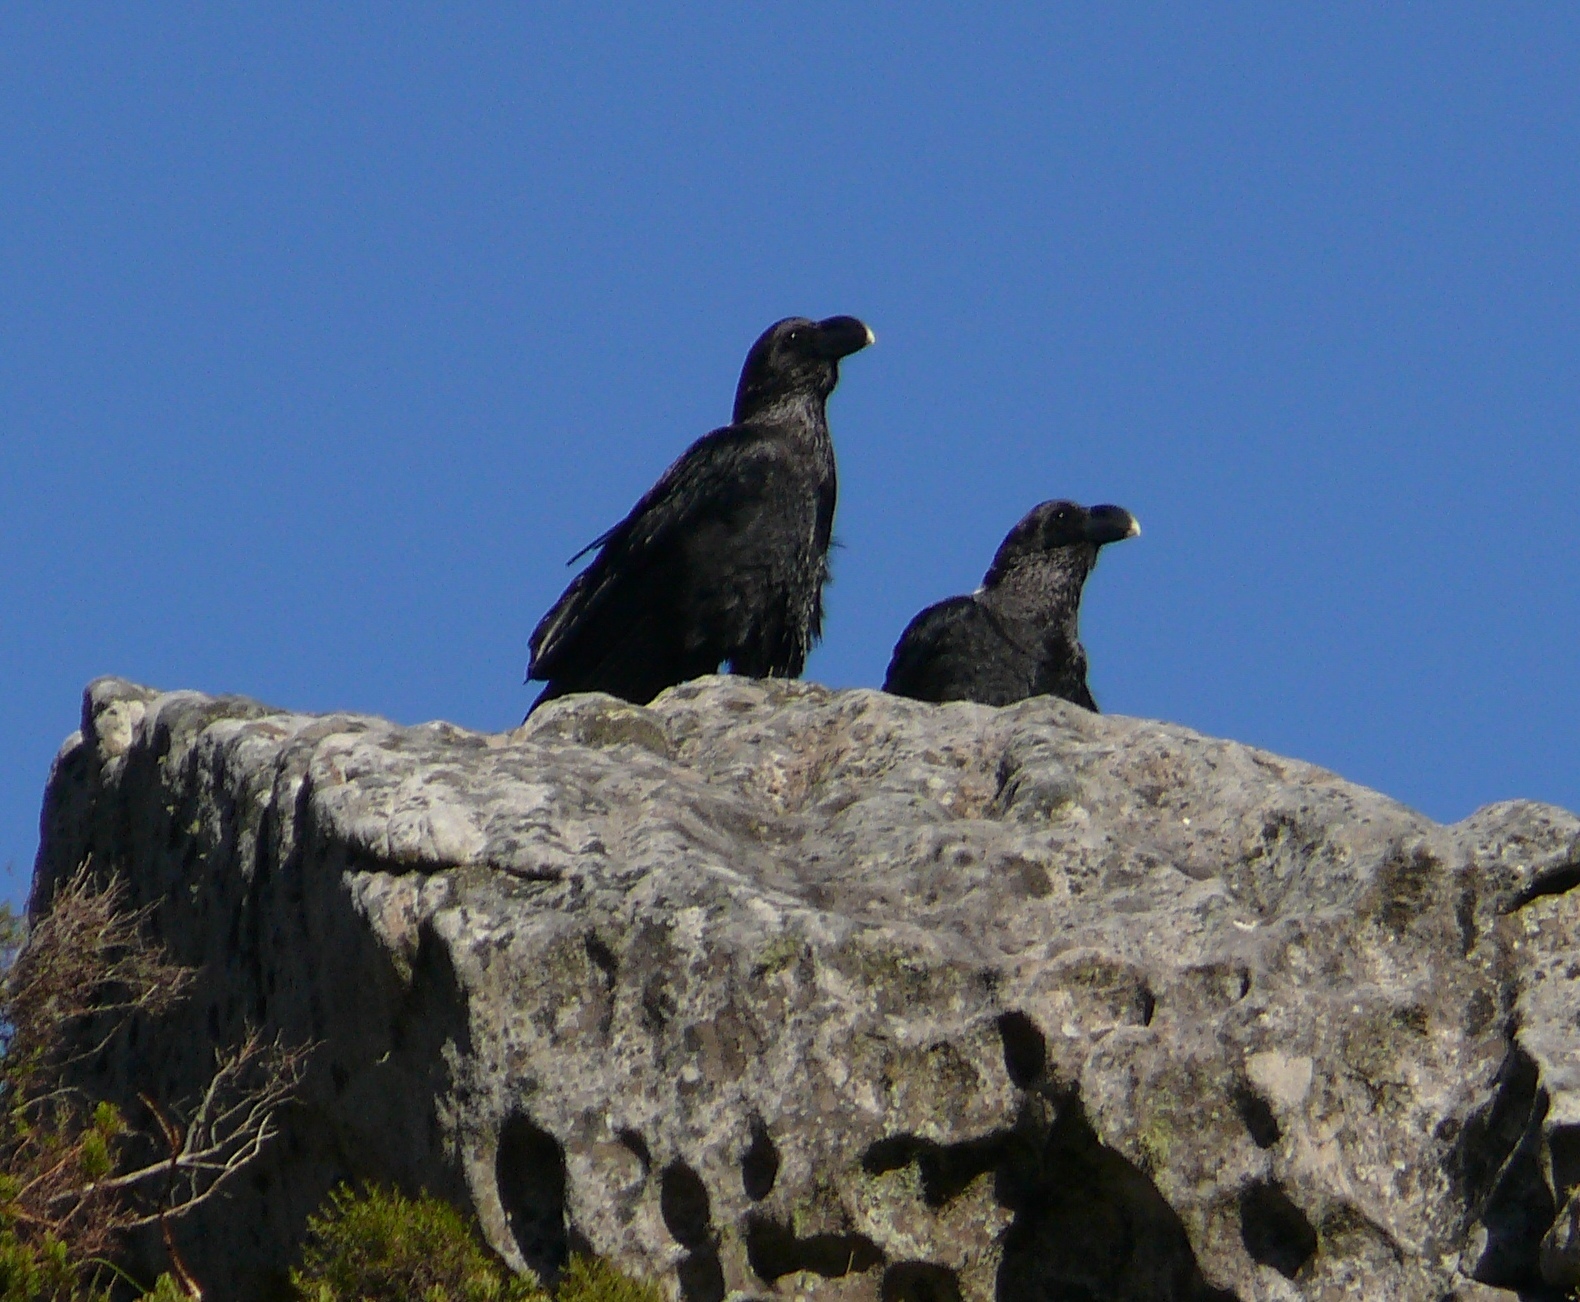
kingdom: Animalia
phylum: Chordata
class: Aves
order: Passeriformes
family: Corvidae
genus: Corvus
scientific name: Corvus albicollis
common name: White-necked raven
